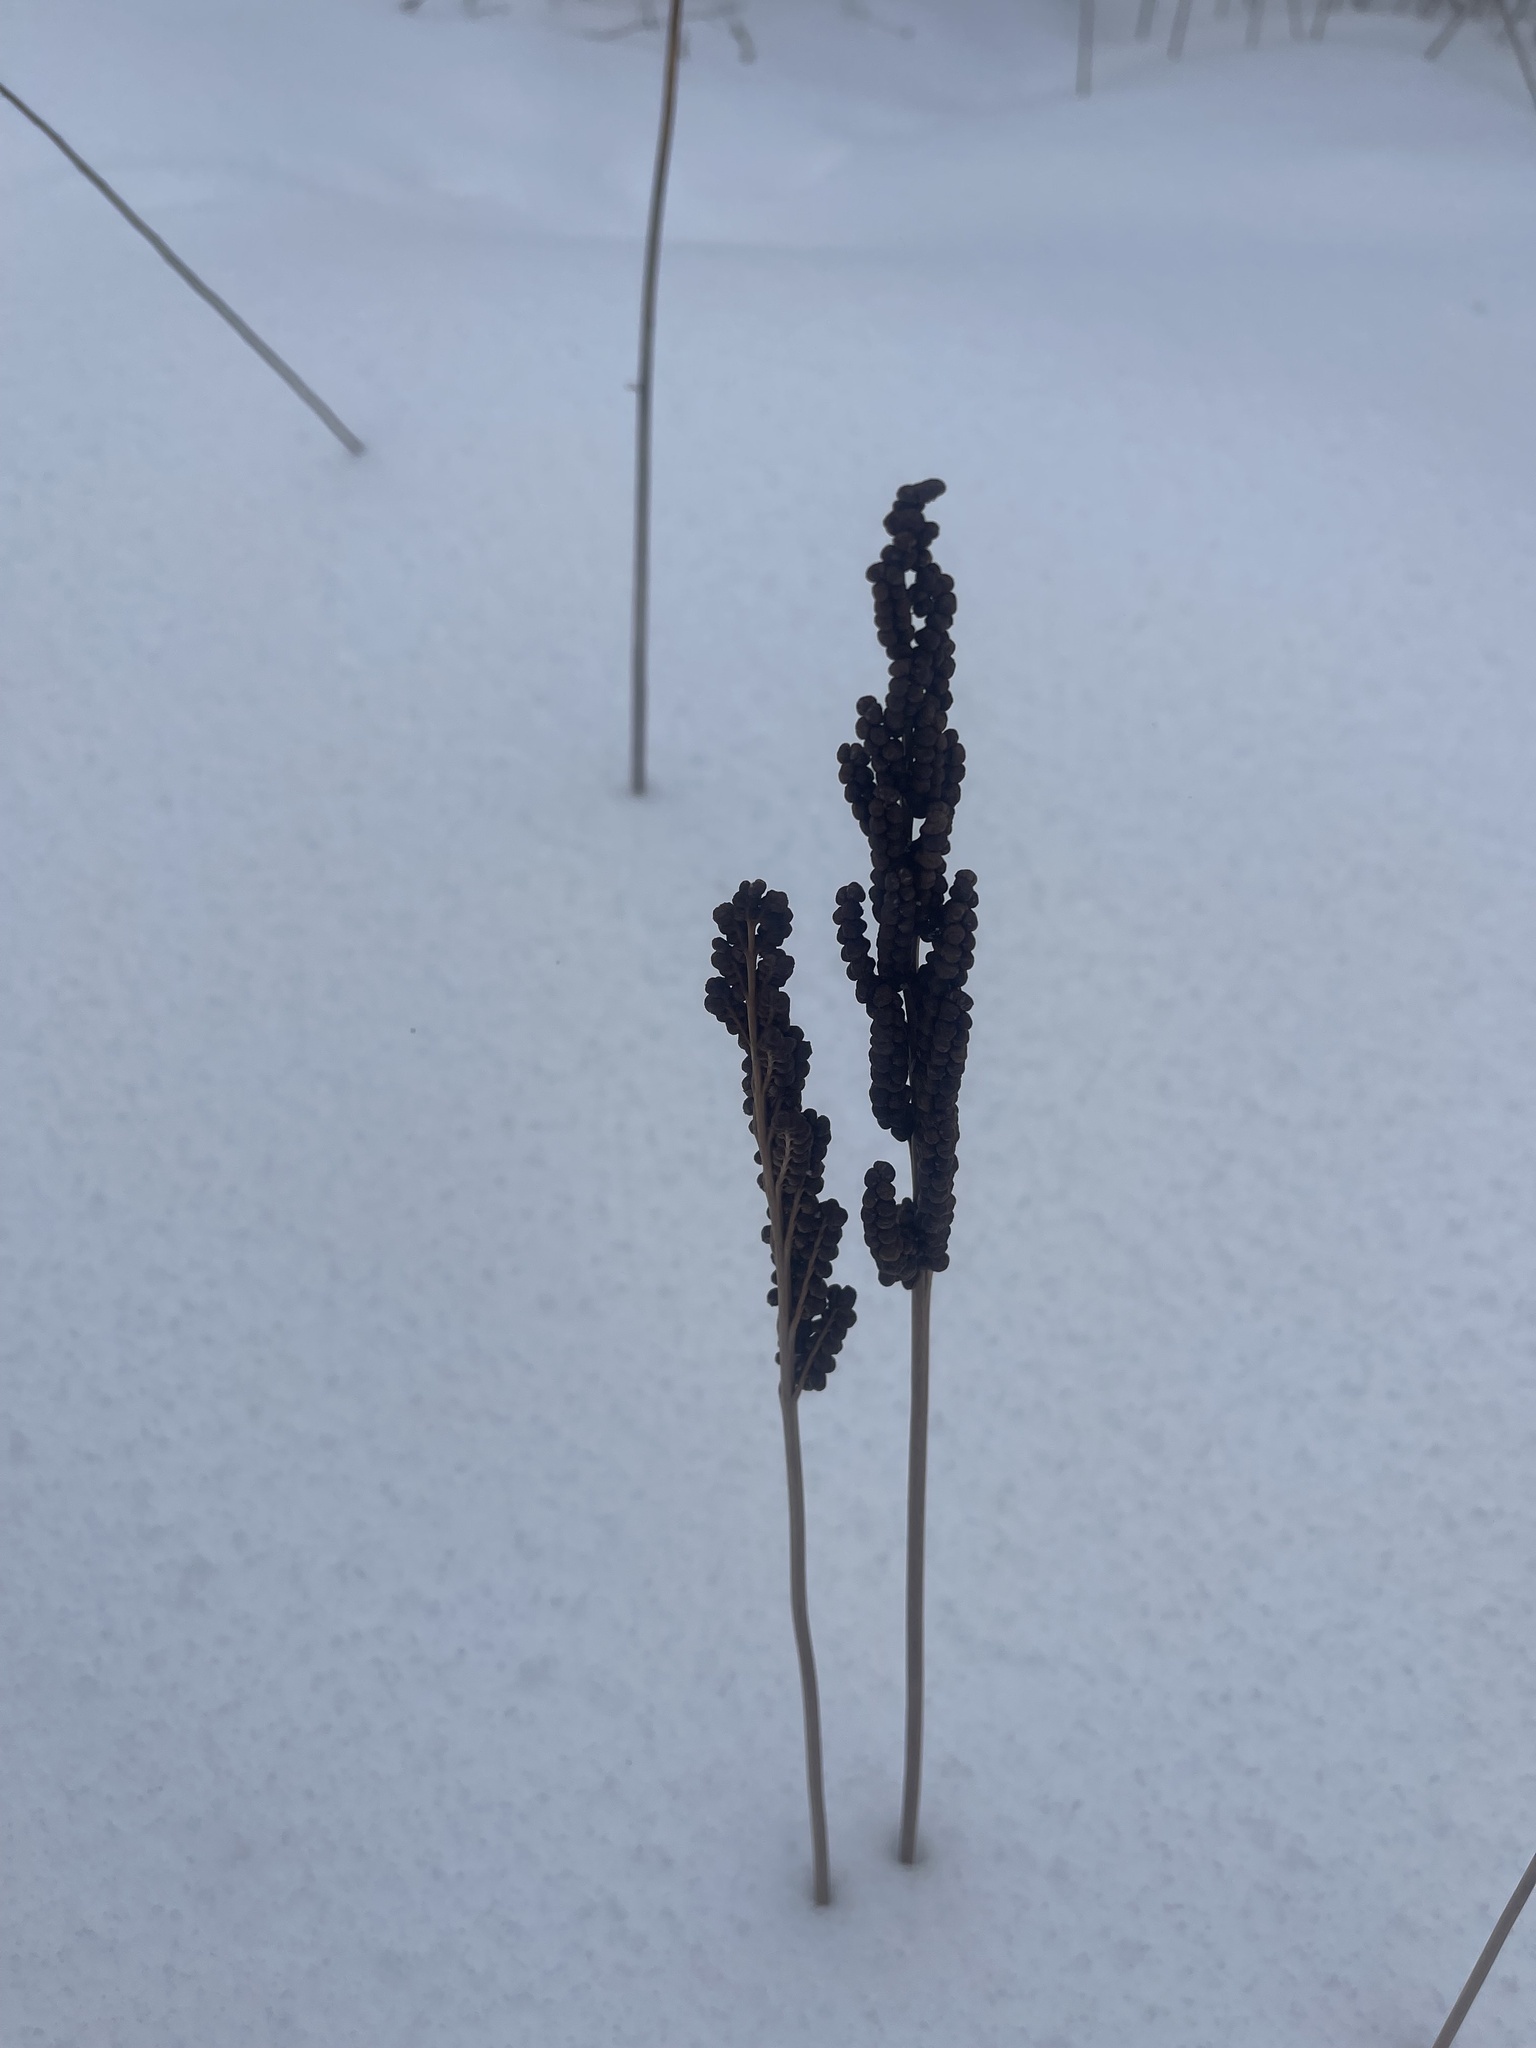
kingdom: Plantae
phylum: Tracheophyta
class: Polypodiopsida
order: Polypodiales
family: Onocleaceae
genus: Onoclea
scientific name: Onoclea sensibilis
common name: Sensitive fern
